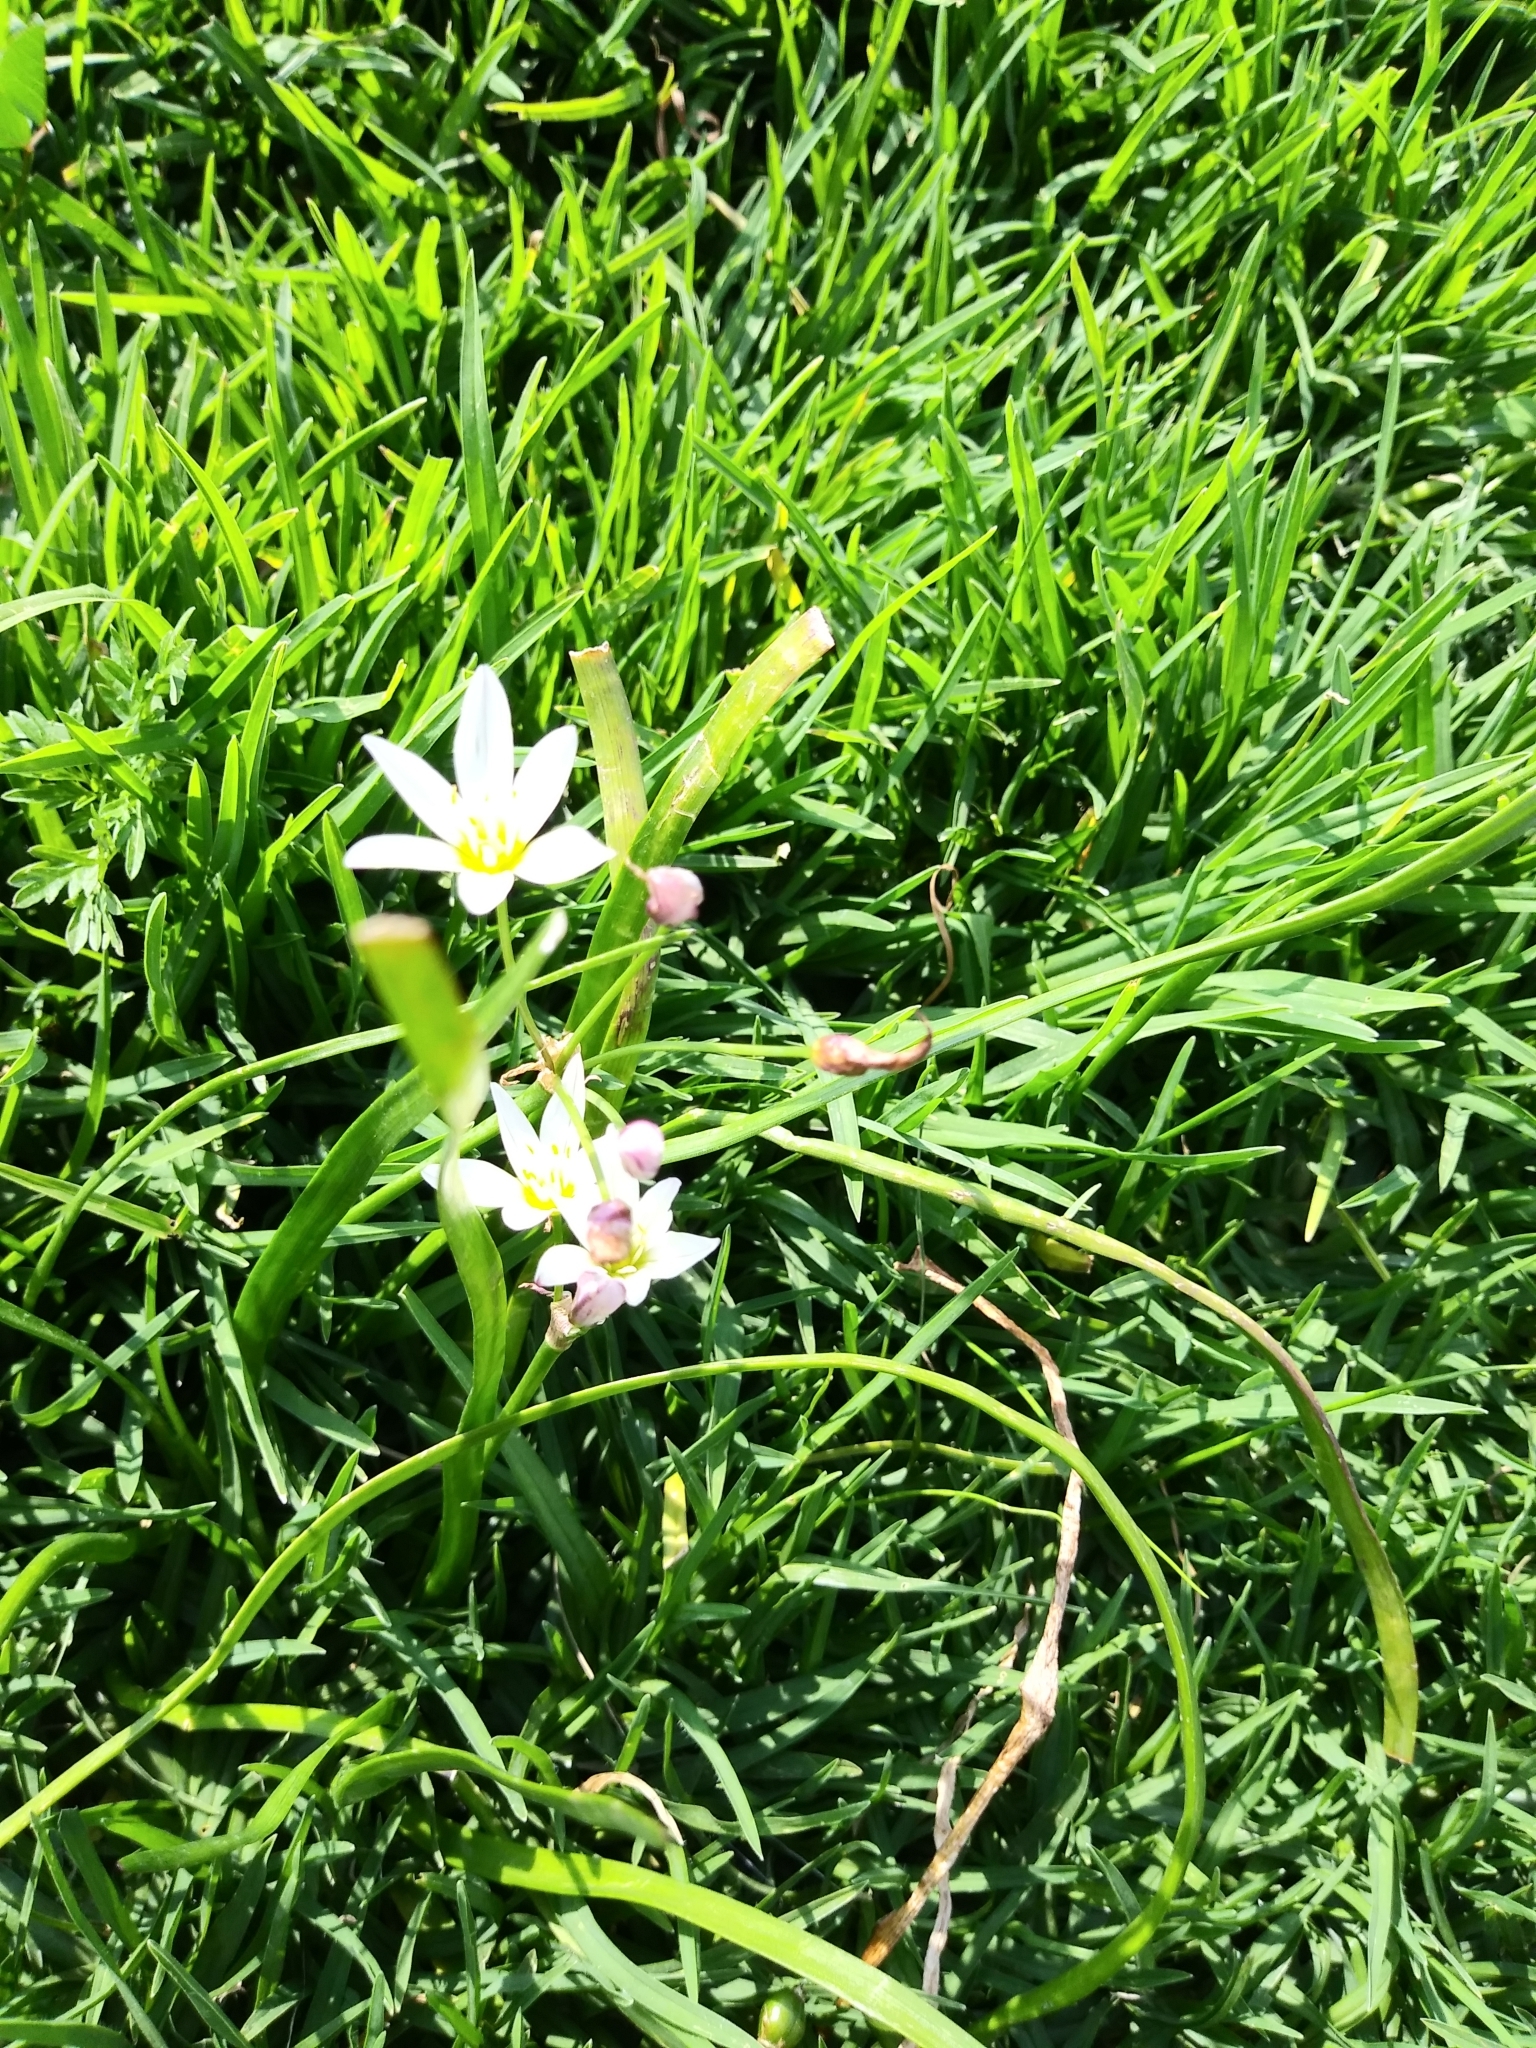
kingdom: Plantae
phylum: Tracheophyta
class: Liliopsida
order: Asparagales
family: Amaryllidaceae
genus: Nothoscordum
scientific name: Nothoscordum bivalve
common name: Crow-poison
